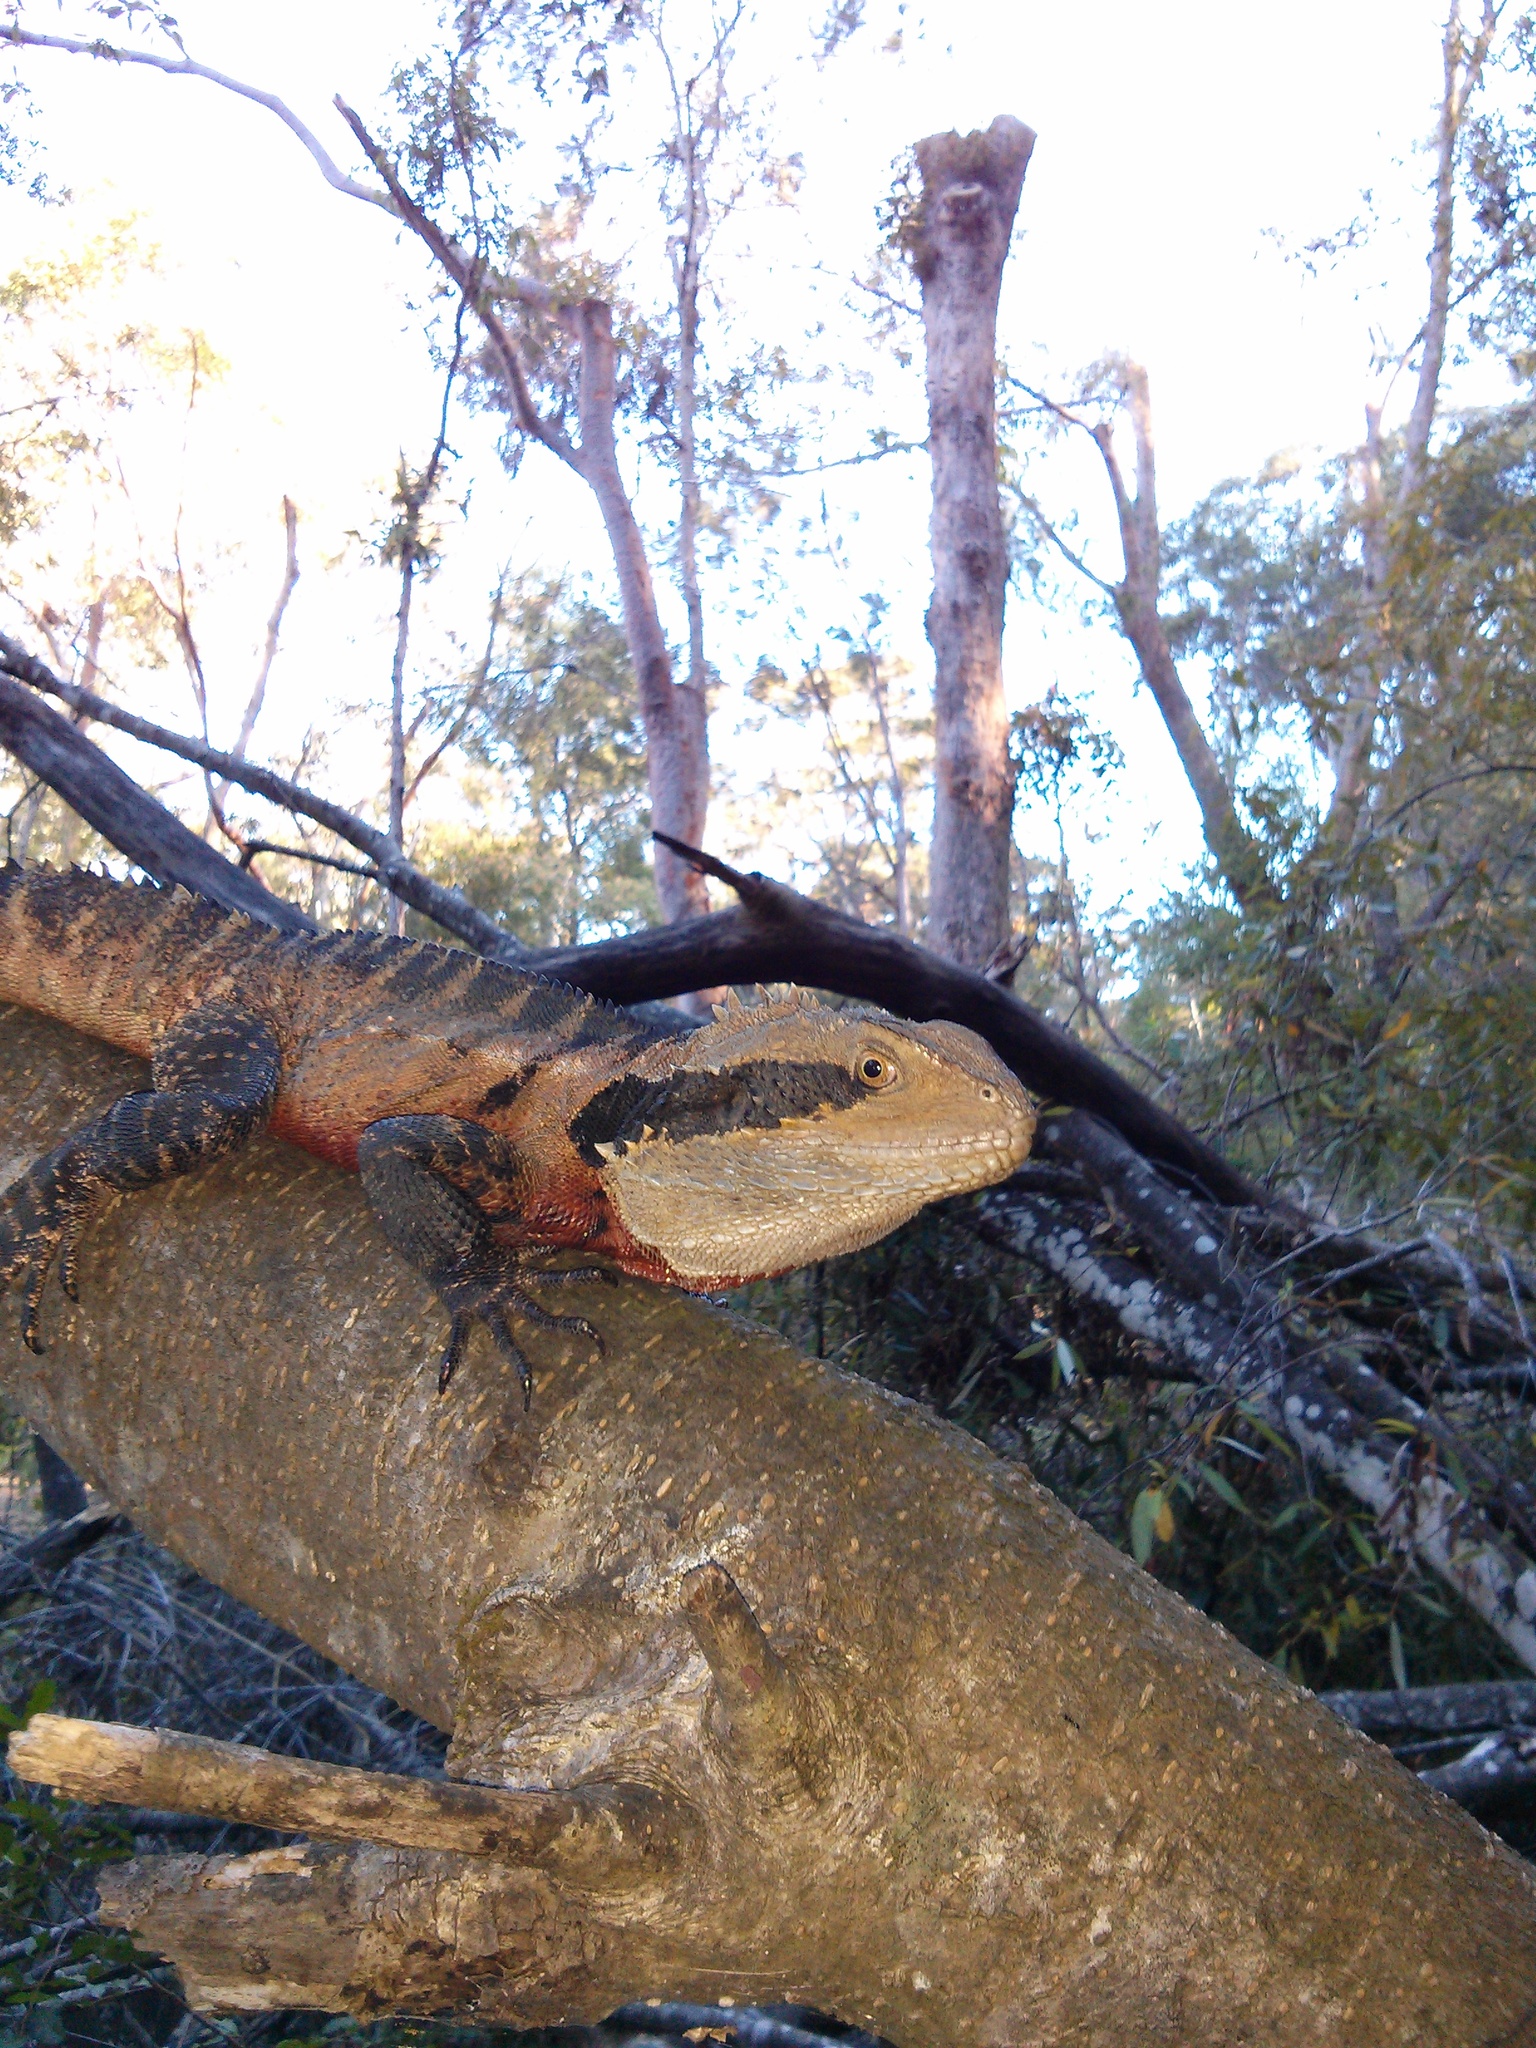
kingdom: Animalia
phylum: Chordata
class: Squamata
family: Agamidae
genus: Intellagama
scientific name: Intellagama lesueurii
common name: Eastern water dragon
